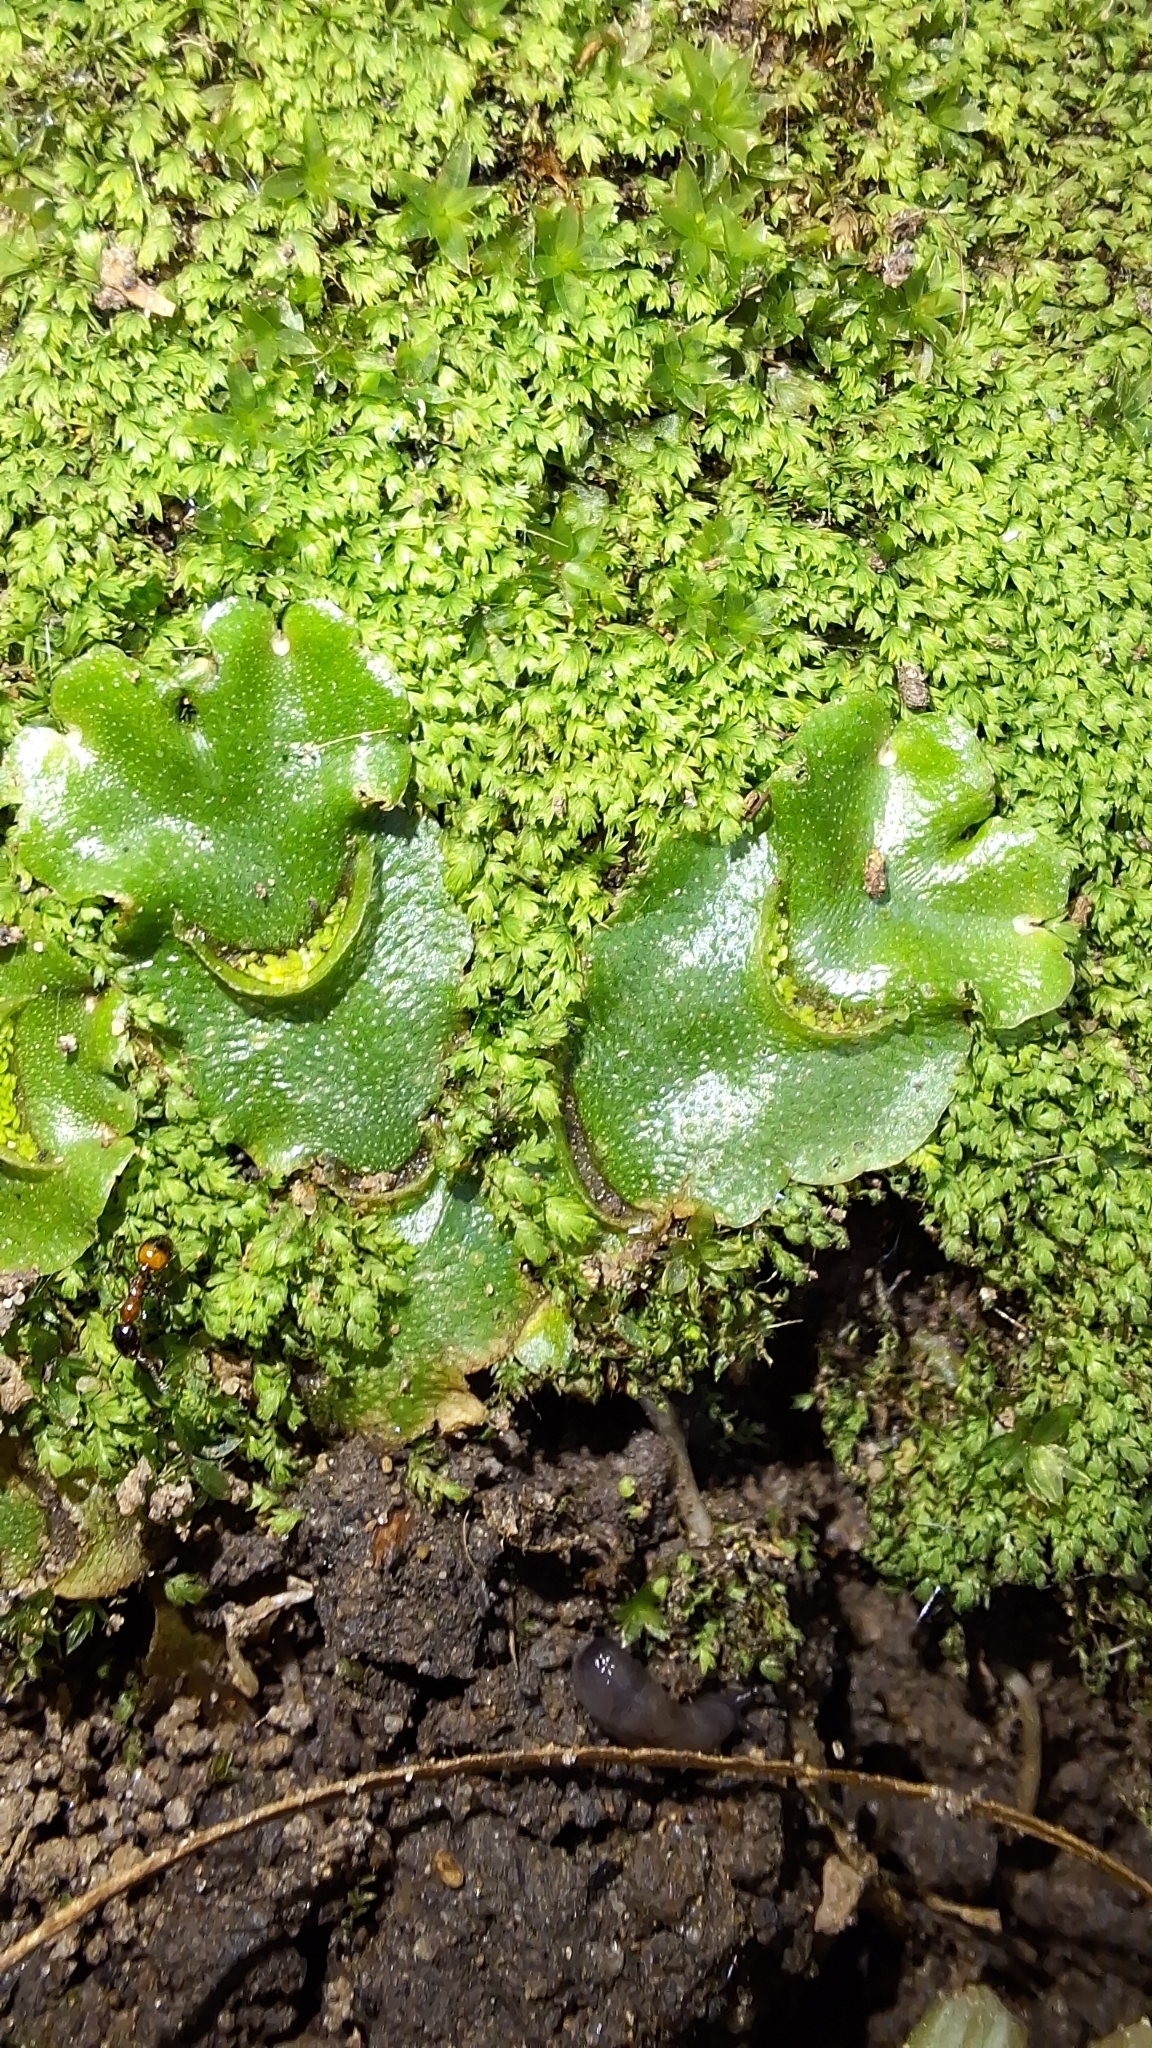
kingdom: Plantae
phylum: Marchantiophyta
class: Marchantiopsida
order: Lunulariales
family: Lunulariaceae
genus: Lunularia
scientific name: Lunularia cruciata
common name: Crescent-cup liverwort
